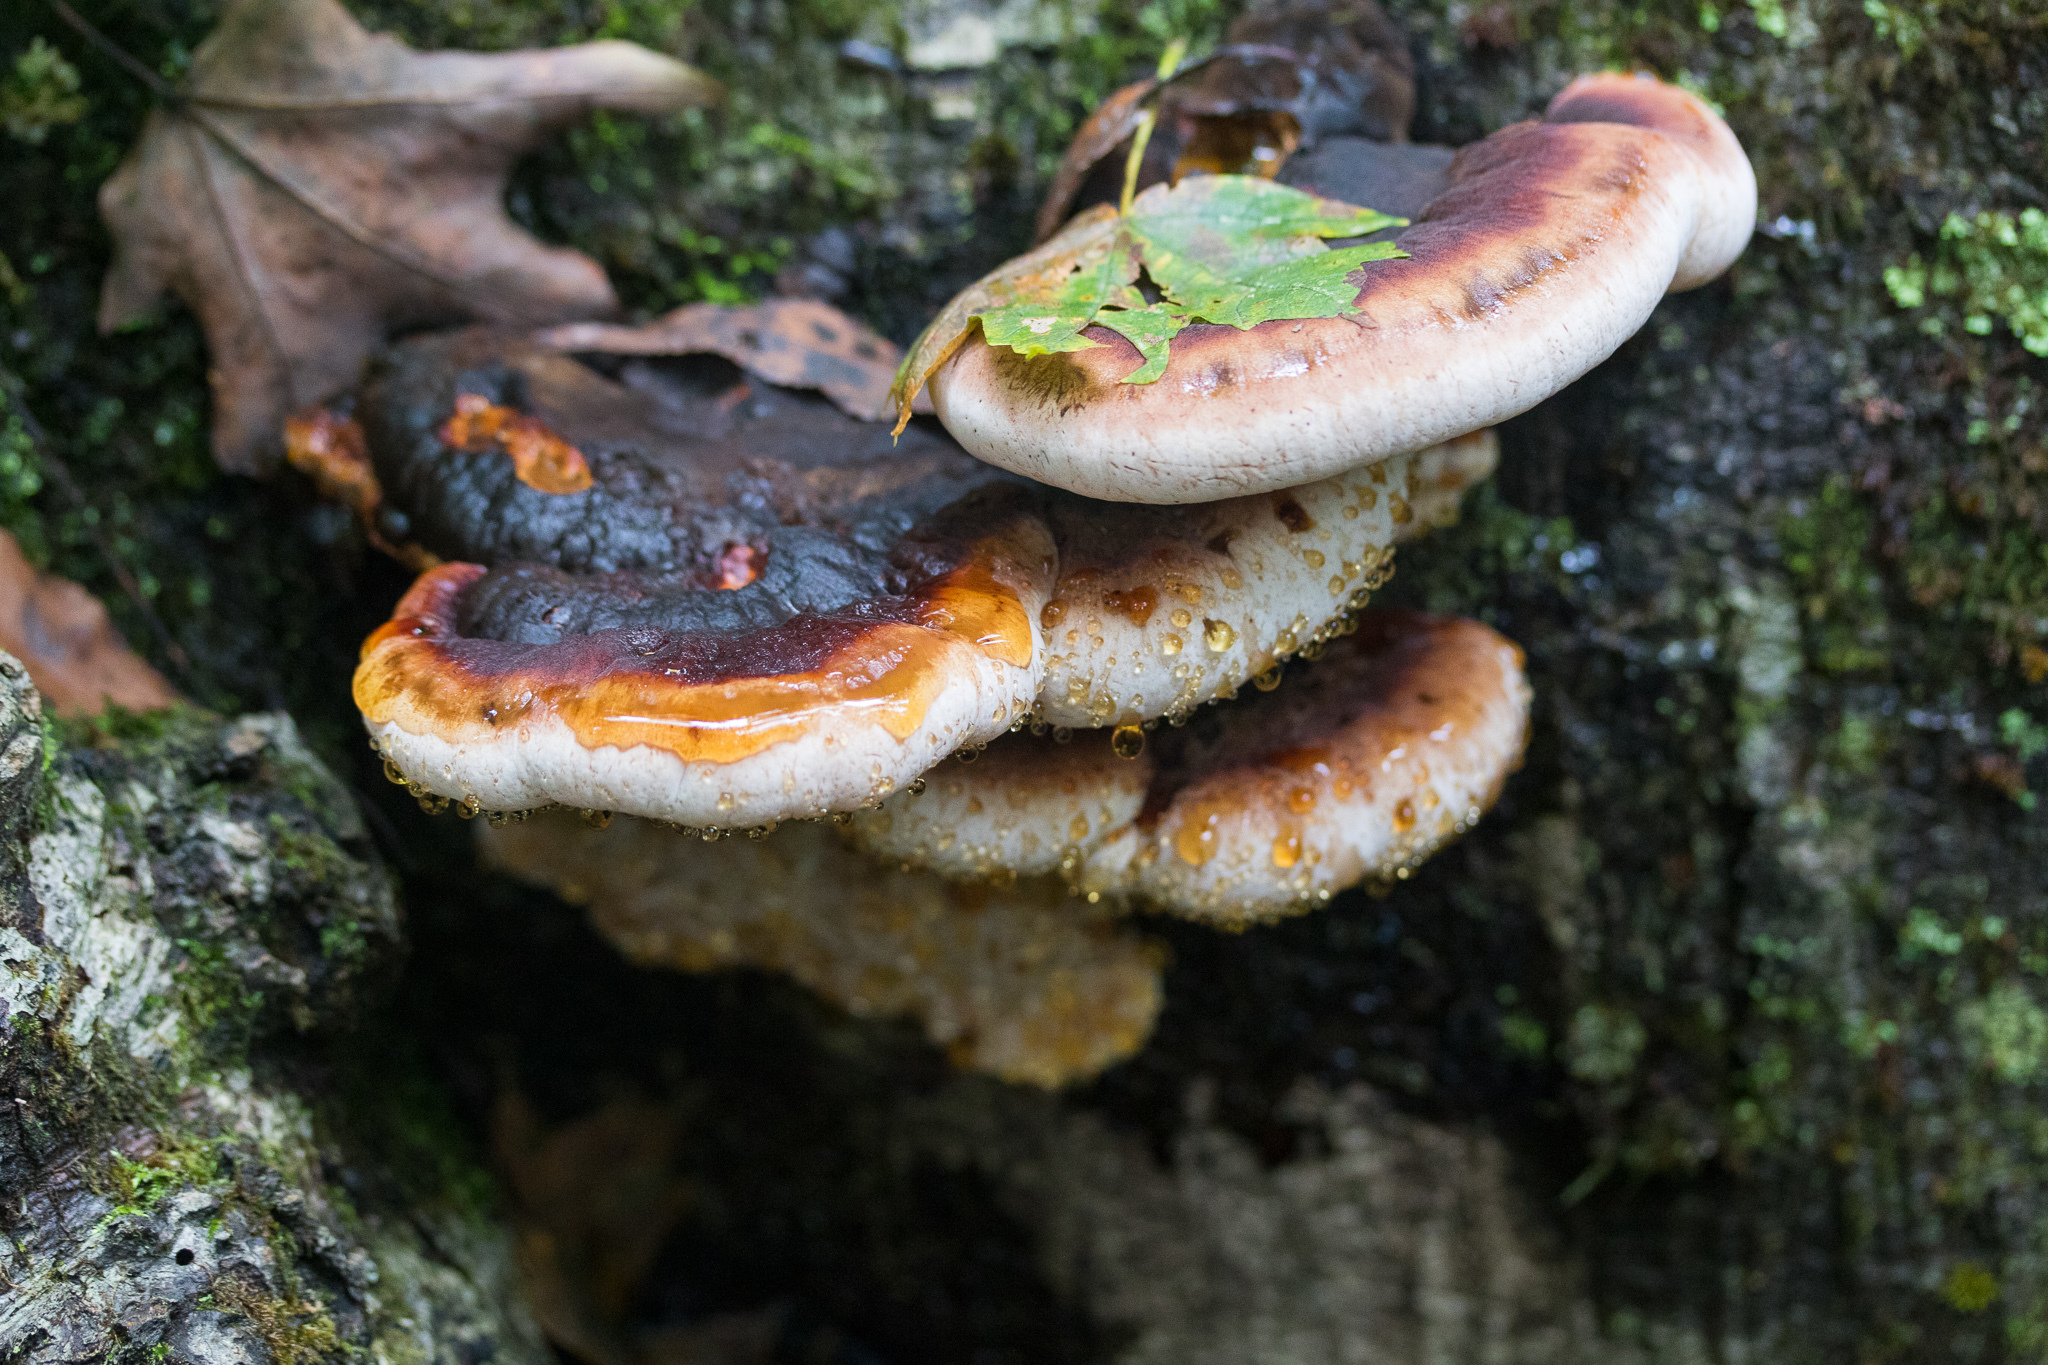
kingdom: Fungi
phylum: Basidiomycota
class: Agaricomycetes
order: Polyporales
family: Ischnodermataceae
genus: Ischnoderma
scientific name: Ischnoderma resinosum
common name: Resinous polypore
